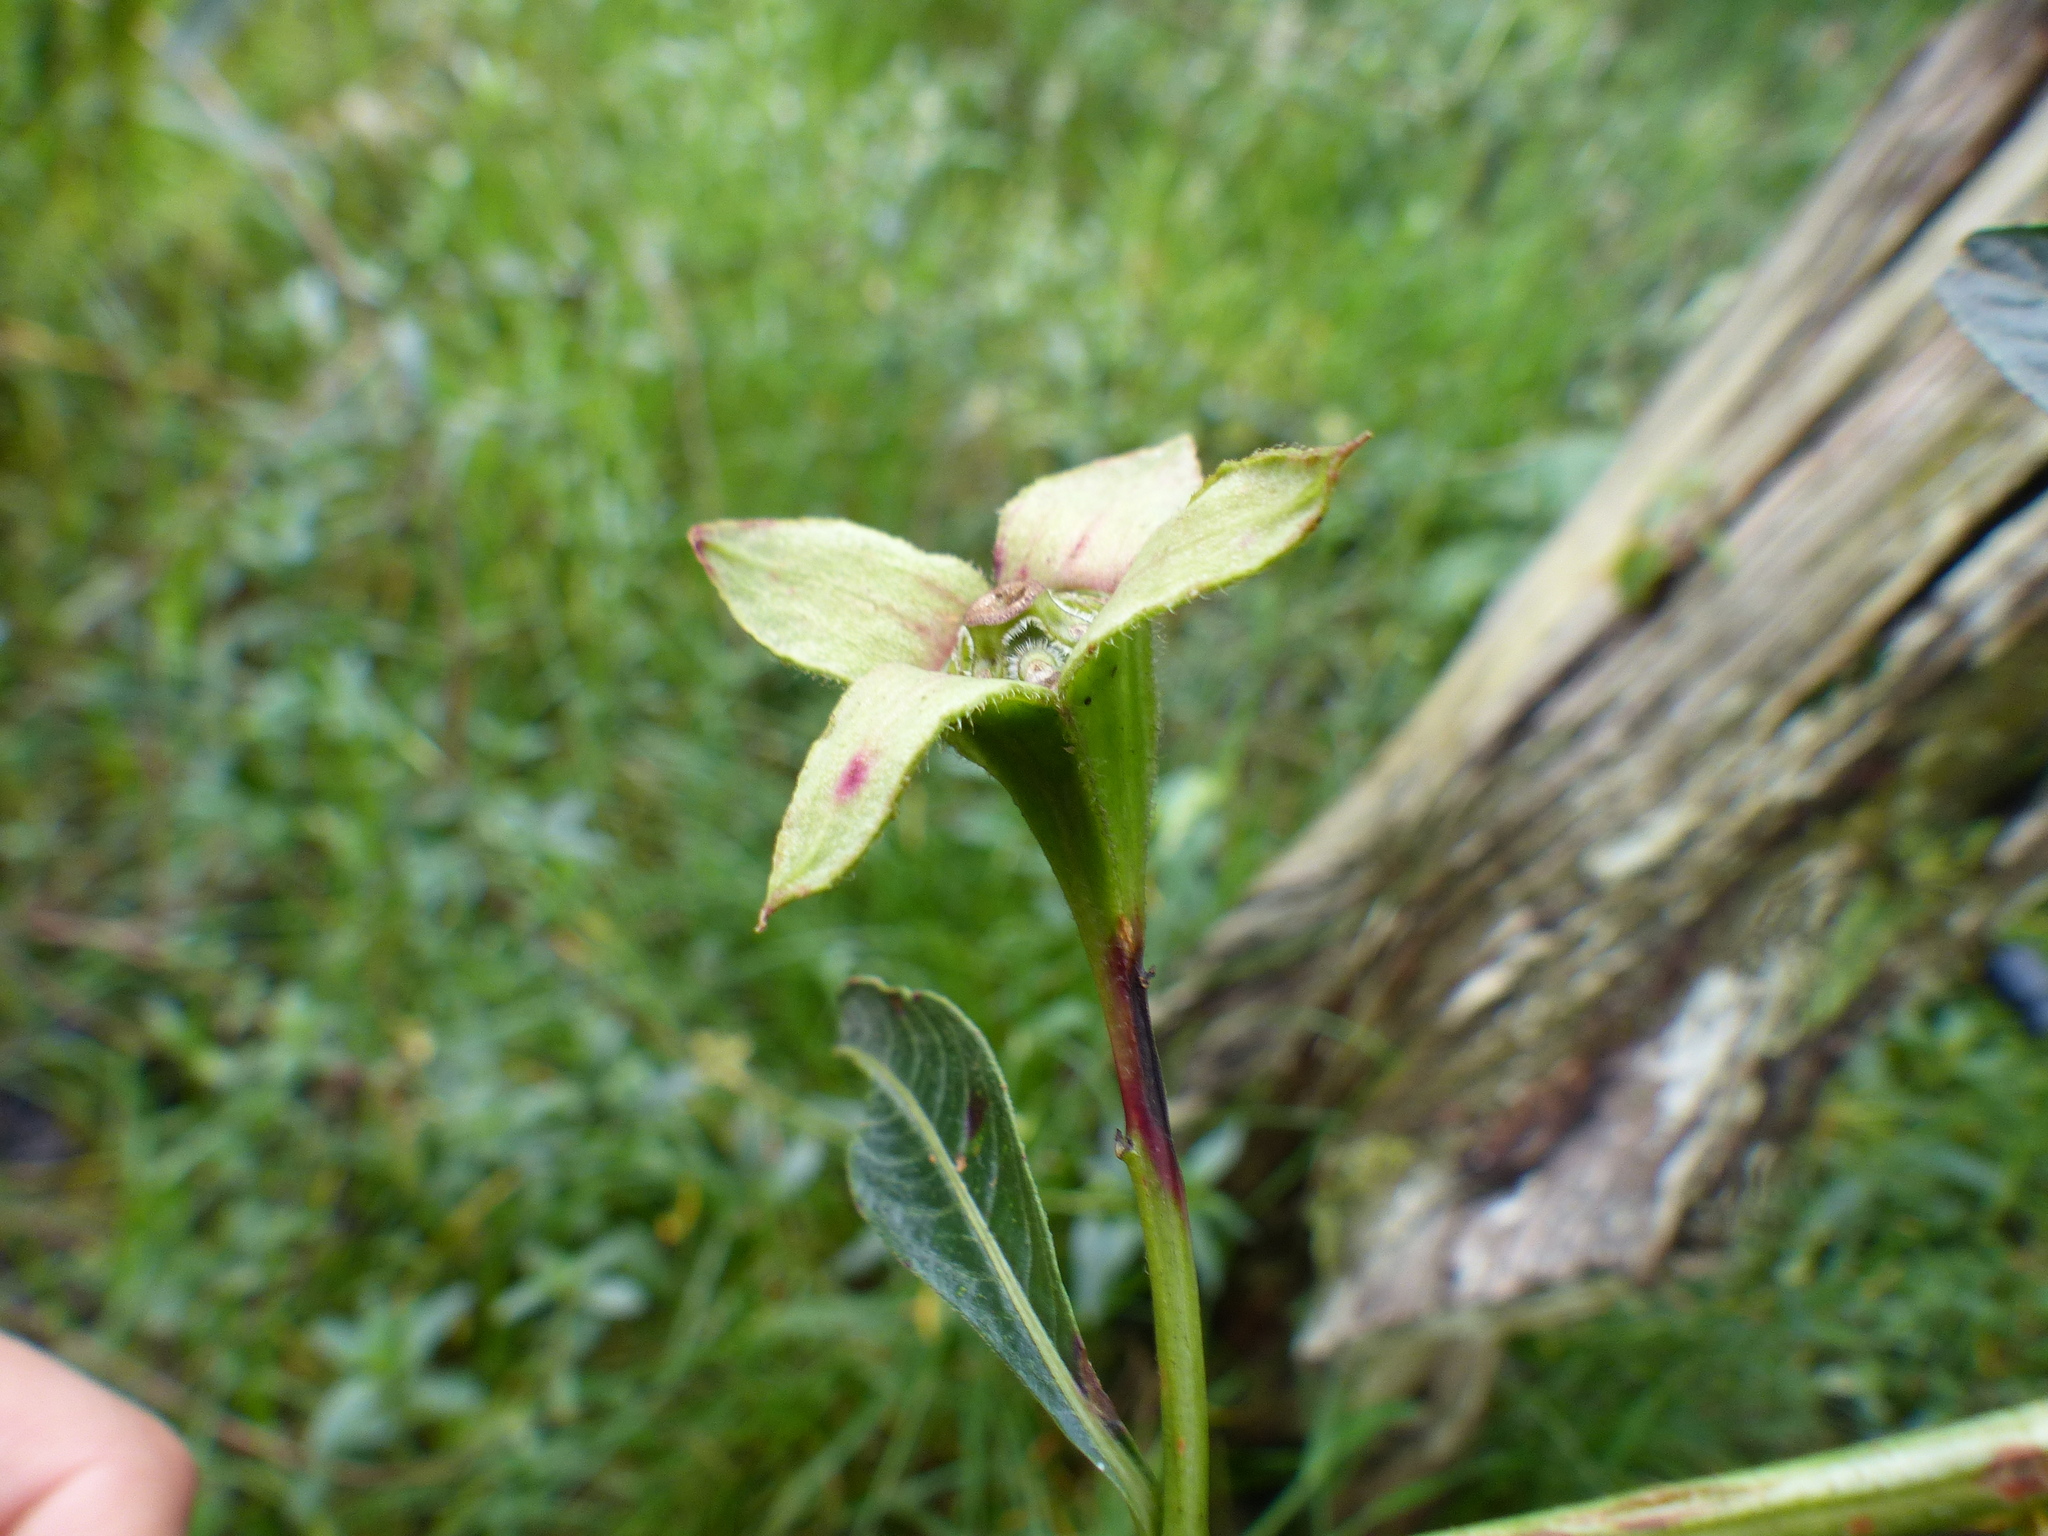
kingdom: Plantae
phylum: Tracheophyta
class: Magnoliopsida
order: Myrtales
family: Onagraceae
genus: Ludwigia
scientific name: Ludwigia peruviana
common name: Peruvian primrose-willow
